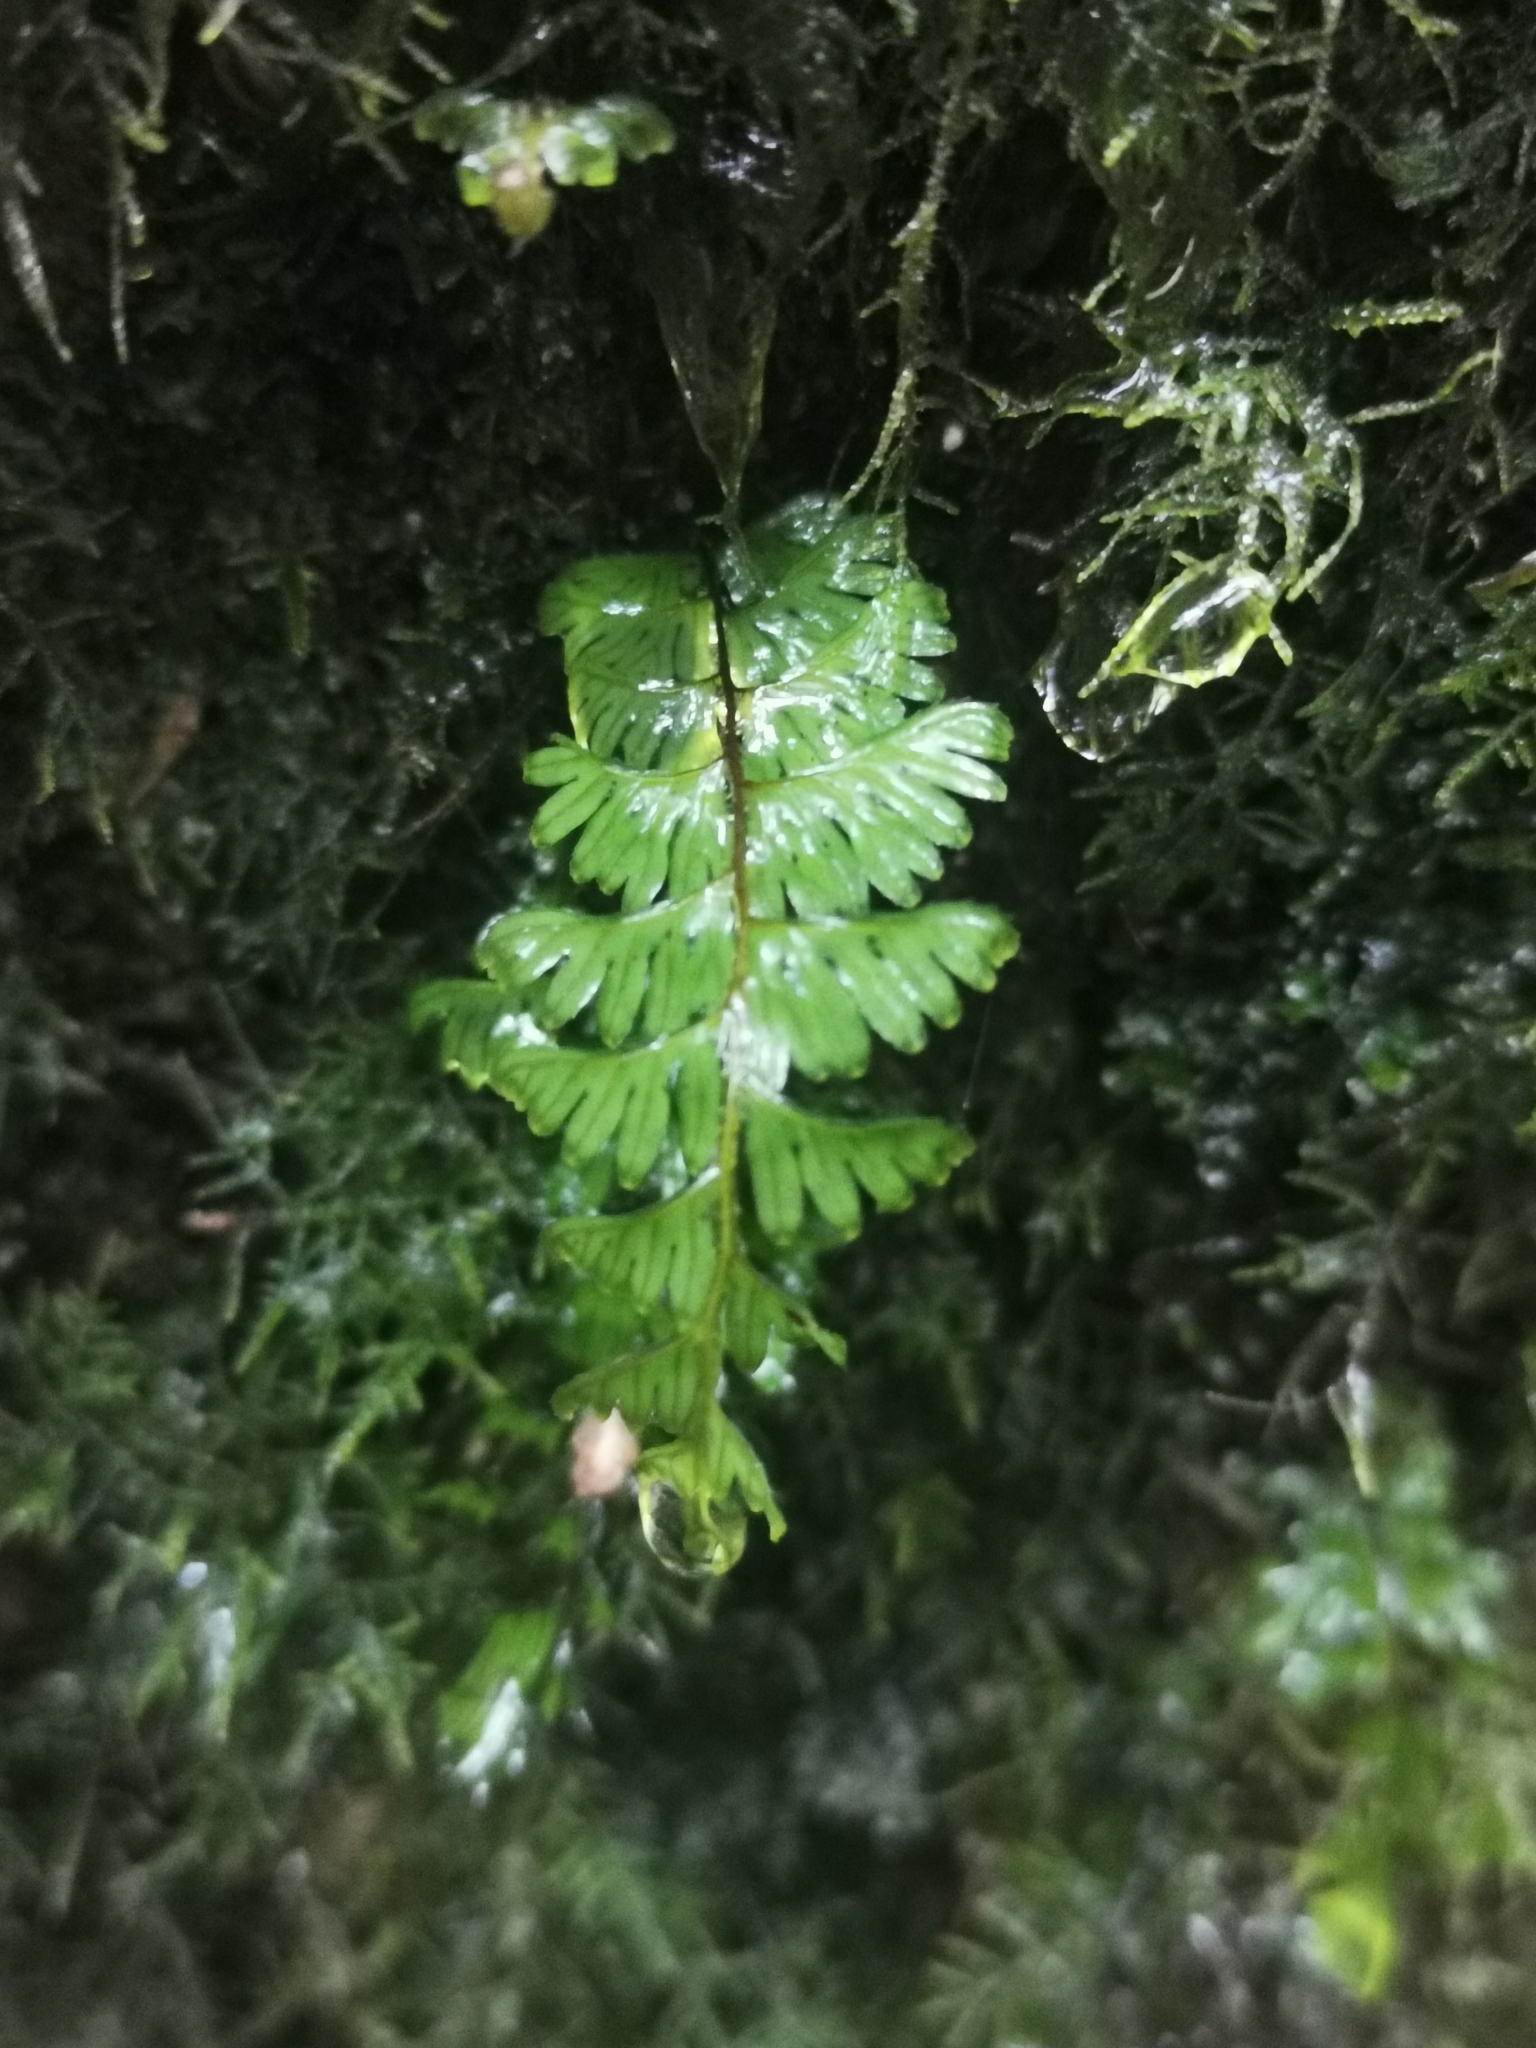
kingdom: Plantae
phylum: Tracheophyta
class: Polypodiopsida
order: Hymenophyllales
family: Hymenophyllaceae
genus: Hymenophyllum
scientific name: Hymenophyllum pectinatum
